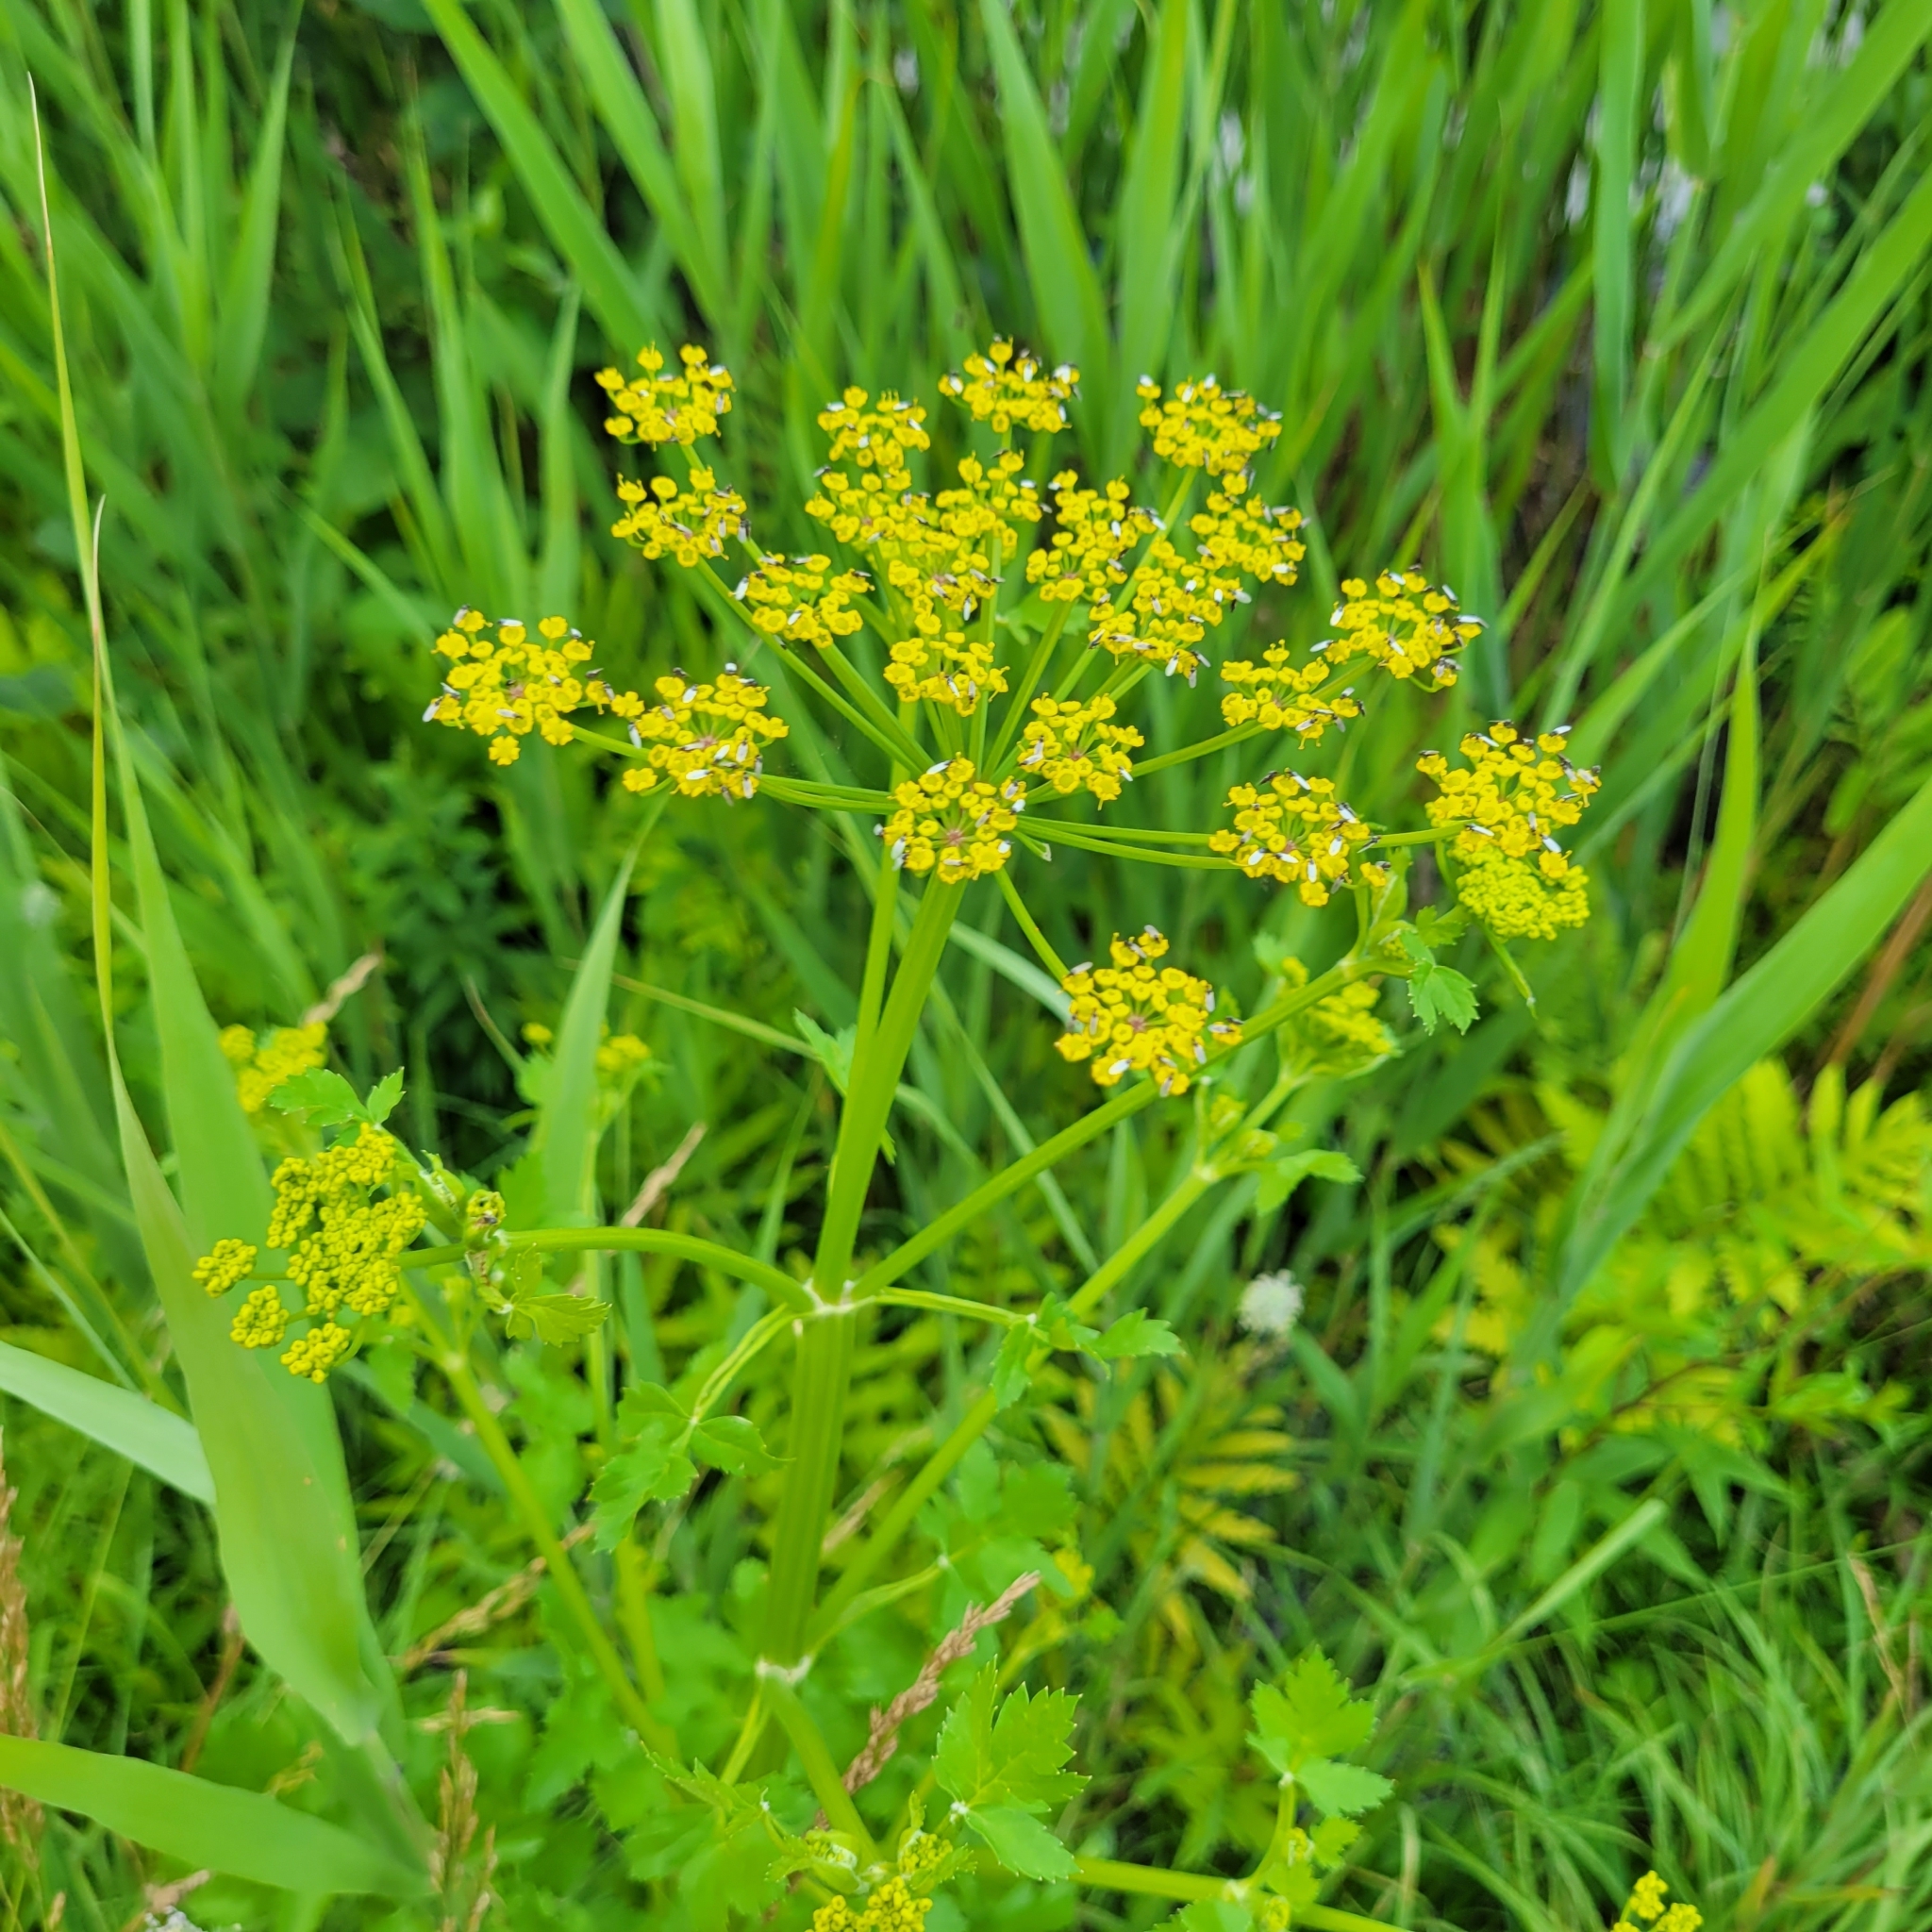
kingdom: Plantae
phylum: Tracheophyta
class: Magnoliopsida
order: Apiales
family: Apiaceae
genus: Pastinaca
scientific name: Pastinaca sativa
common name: Wild parsnip
